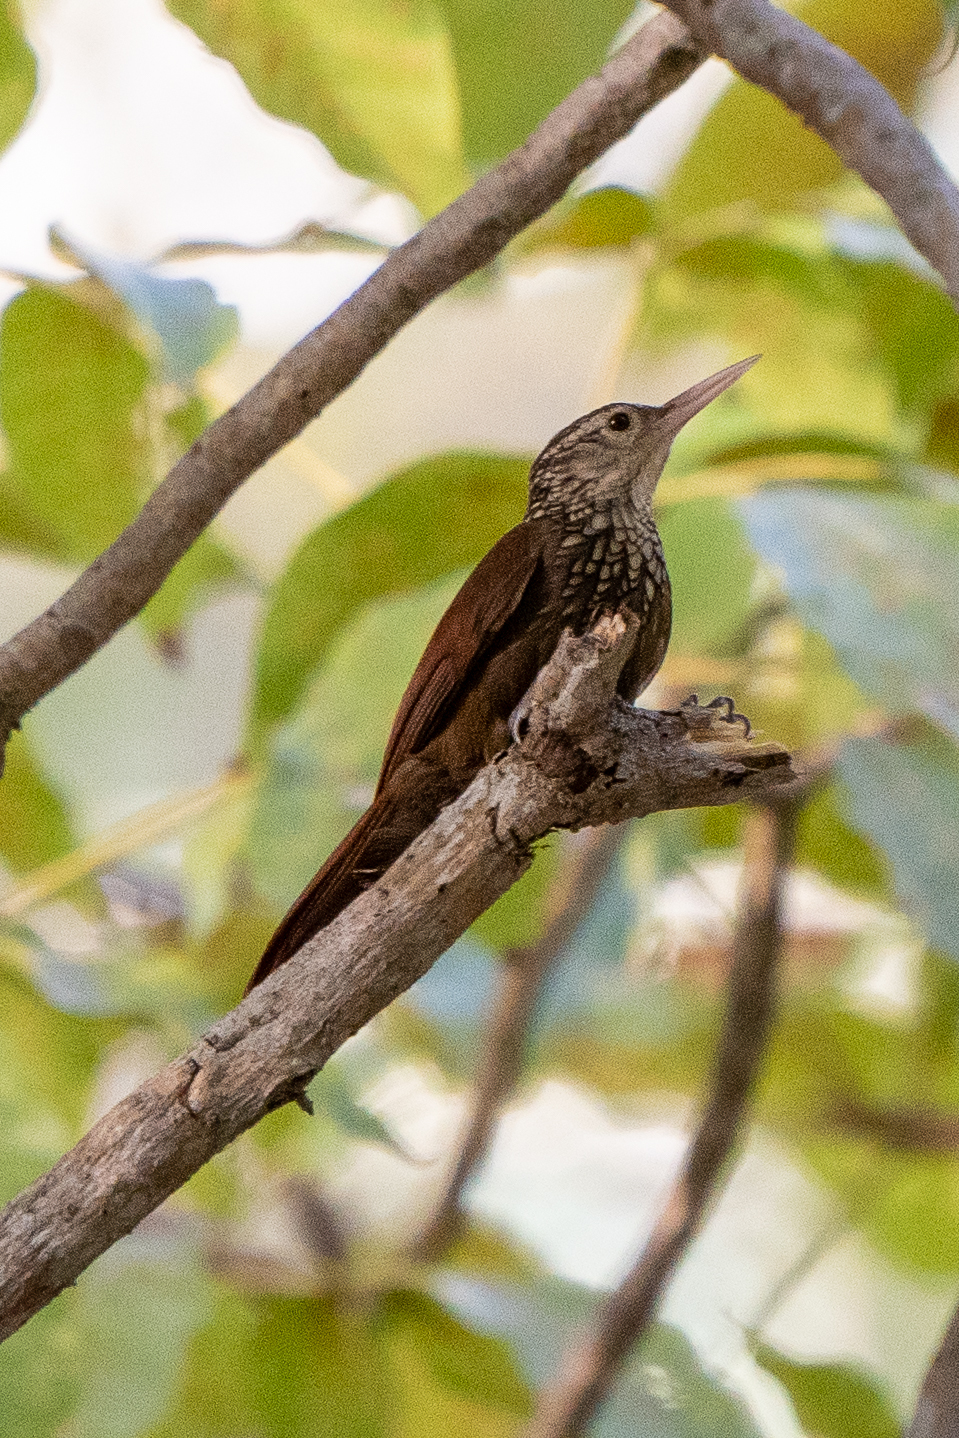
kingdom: Animalia
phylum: Chordata
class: Aves
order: Passeriformes
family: Furnariidae
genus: Xiphorhynchus
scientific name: Xiphorhynchus picus
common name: Straight-billed woodcreeper
